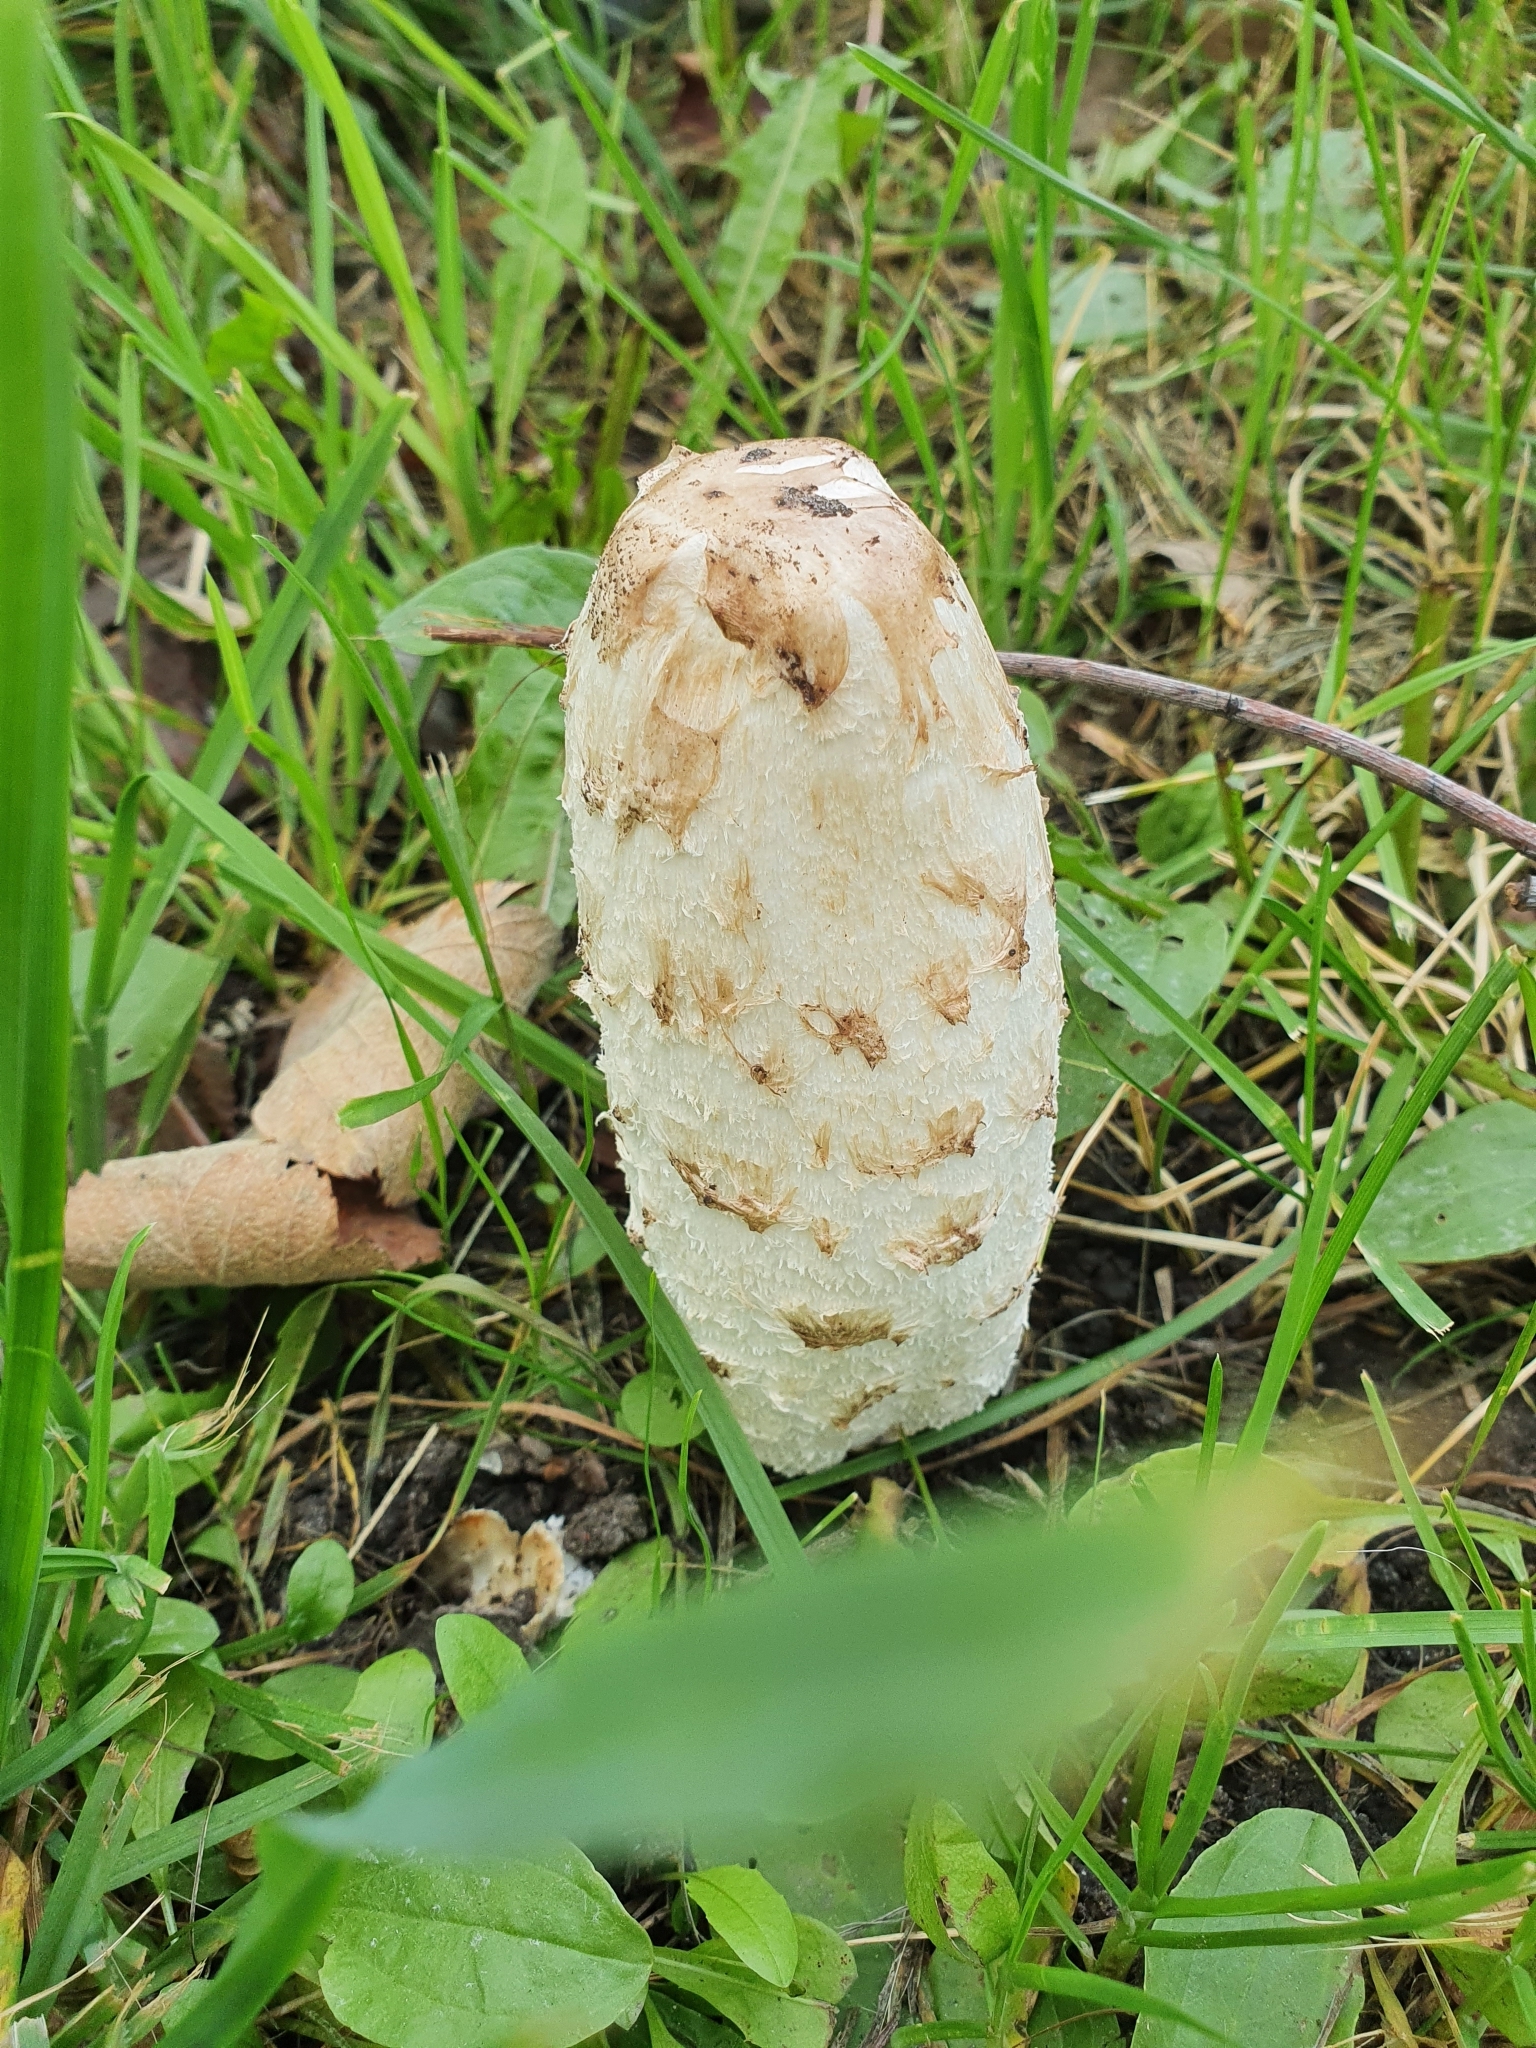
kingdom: Fungi
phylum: Basidiomycota
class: Agaricomycetes
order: Agaricales
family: Agaricaceae
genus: Coprinus
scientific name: Coprinus comatus
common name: Lawyer's wig
